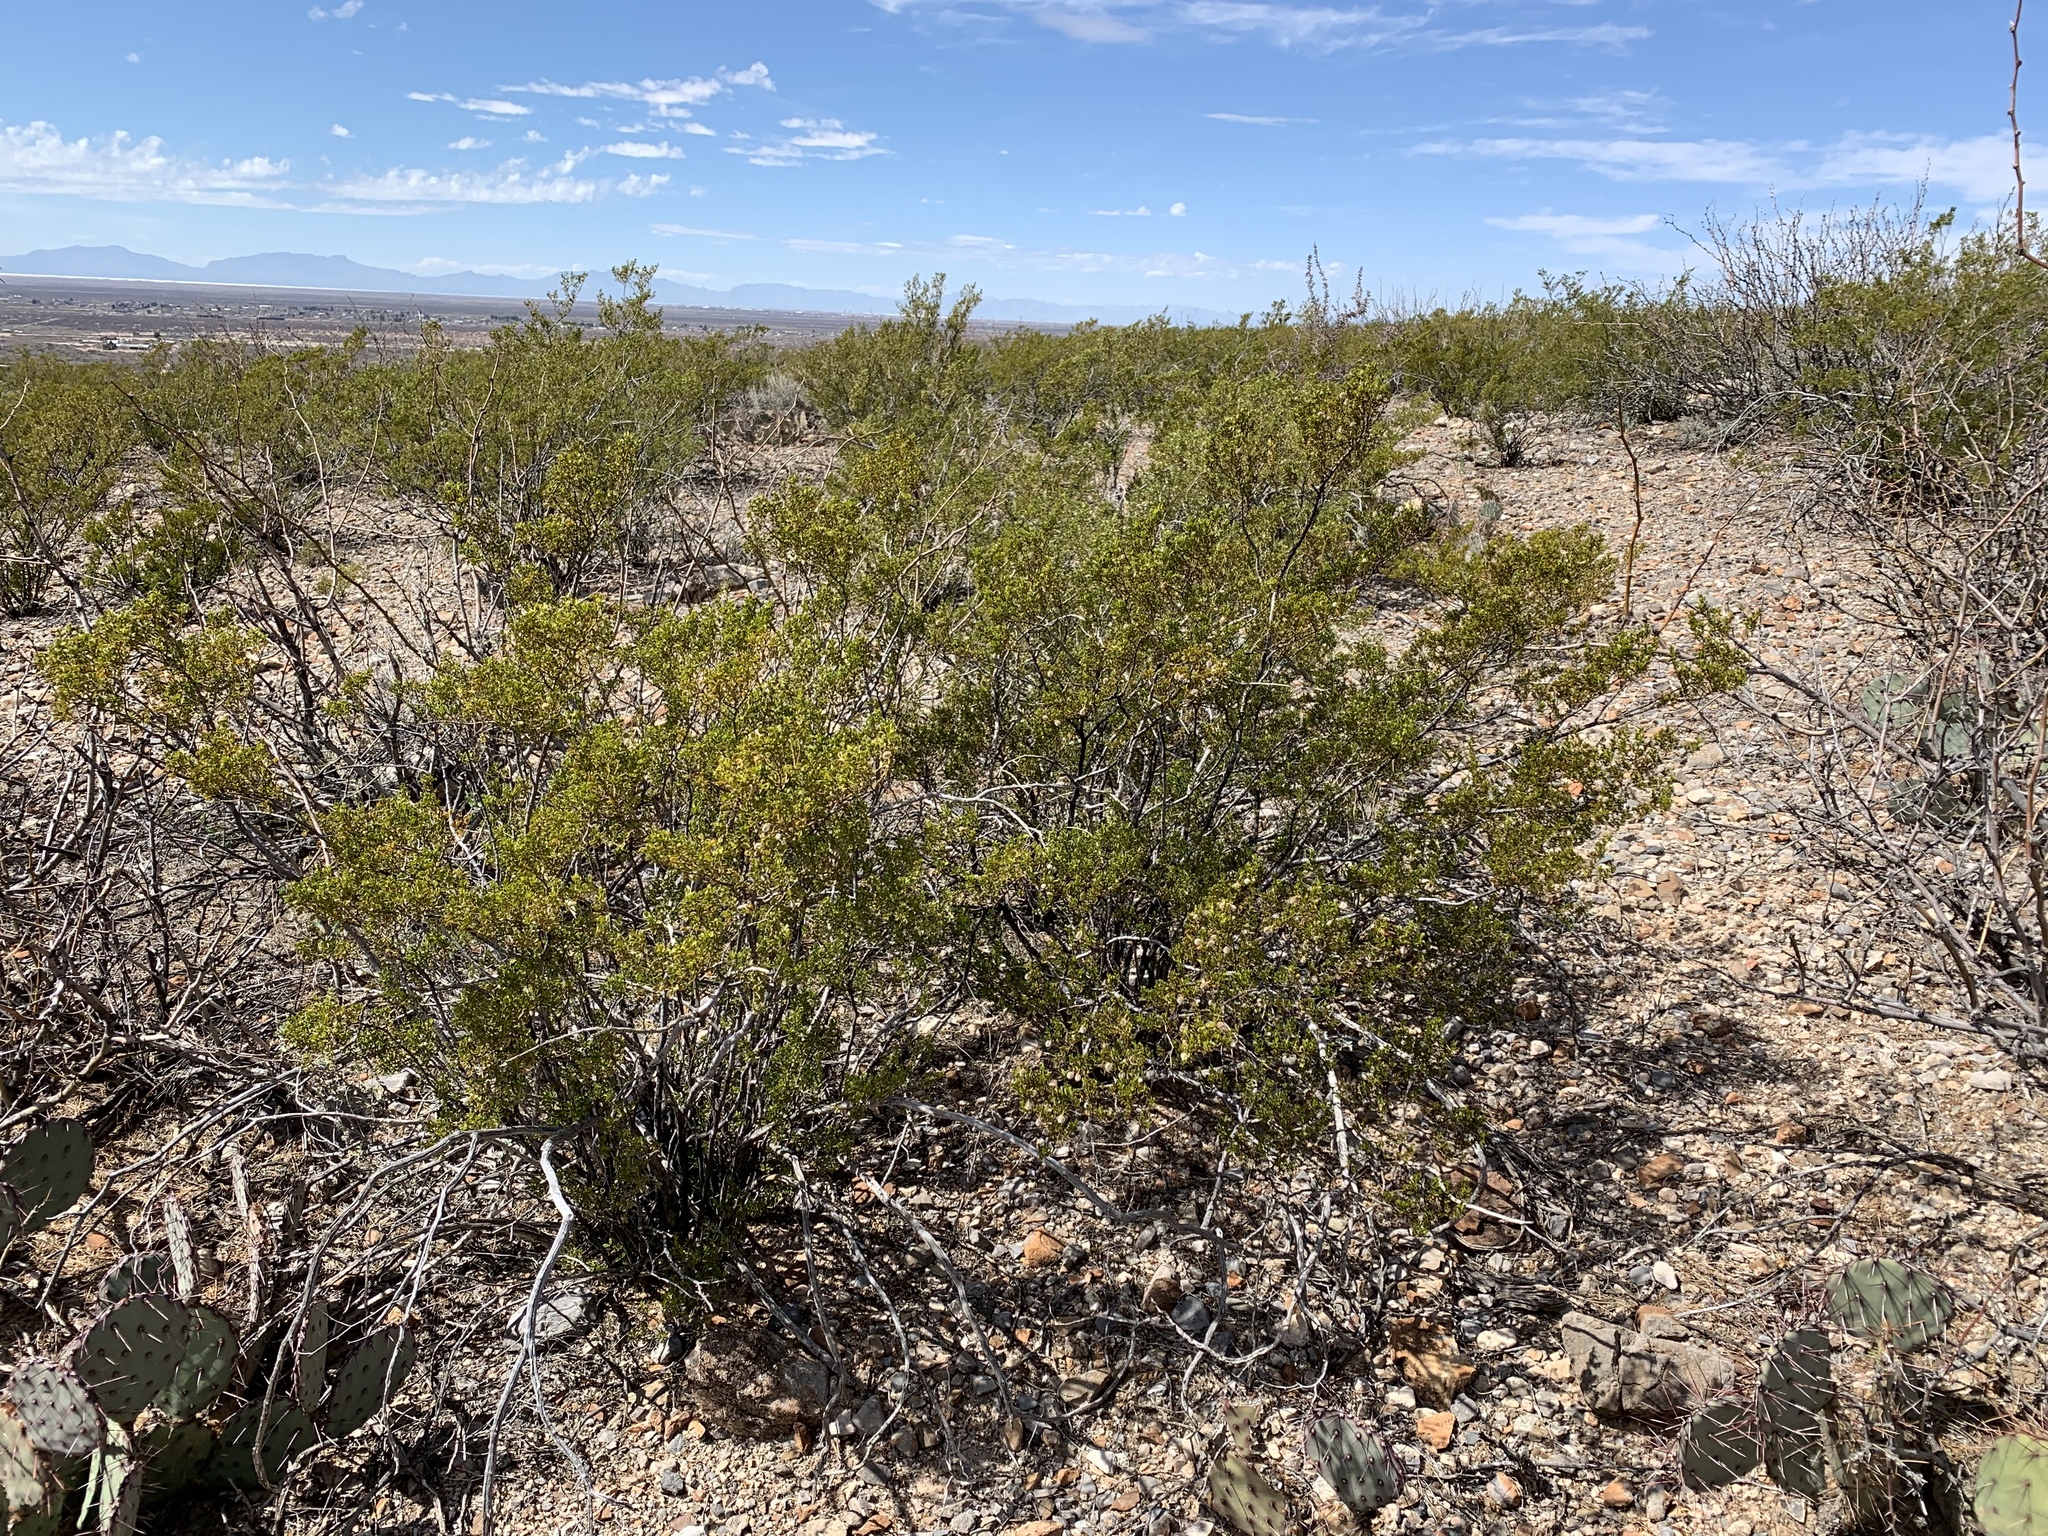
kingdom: Plantae
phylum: Tracheophyta
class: Magnoliopsida
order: Zygophyllales
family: Zygophyllaceae
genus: Larrea
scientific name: Larrea tridentata
